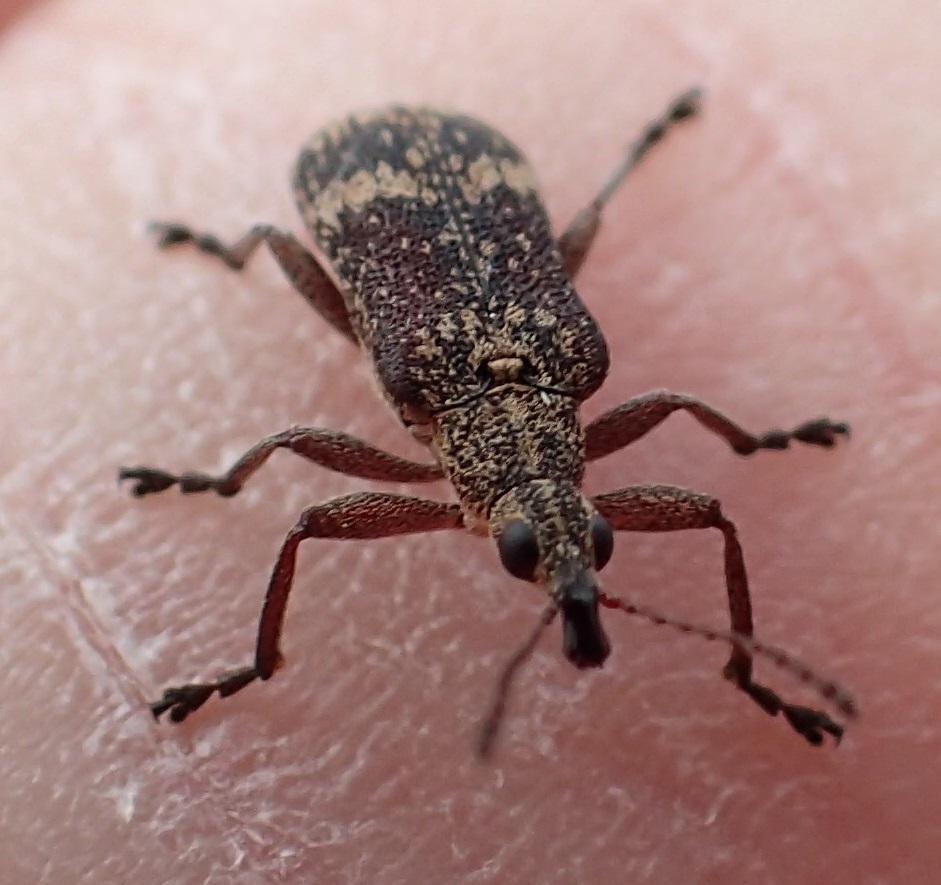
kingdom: Animalia
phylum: Arthropoda
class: Insecta
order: Coleoptera
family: Belidae
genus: Sphinctobelus
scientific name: Sphinctobelus cinereus
